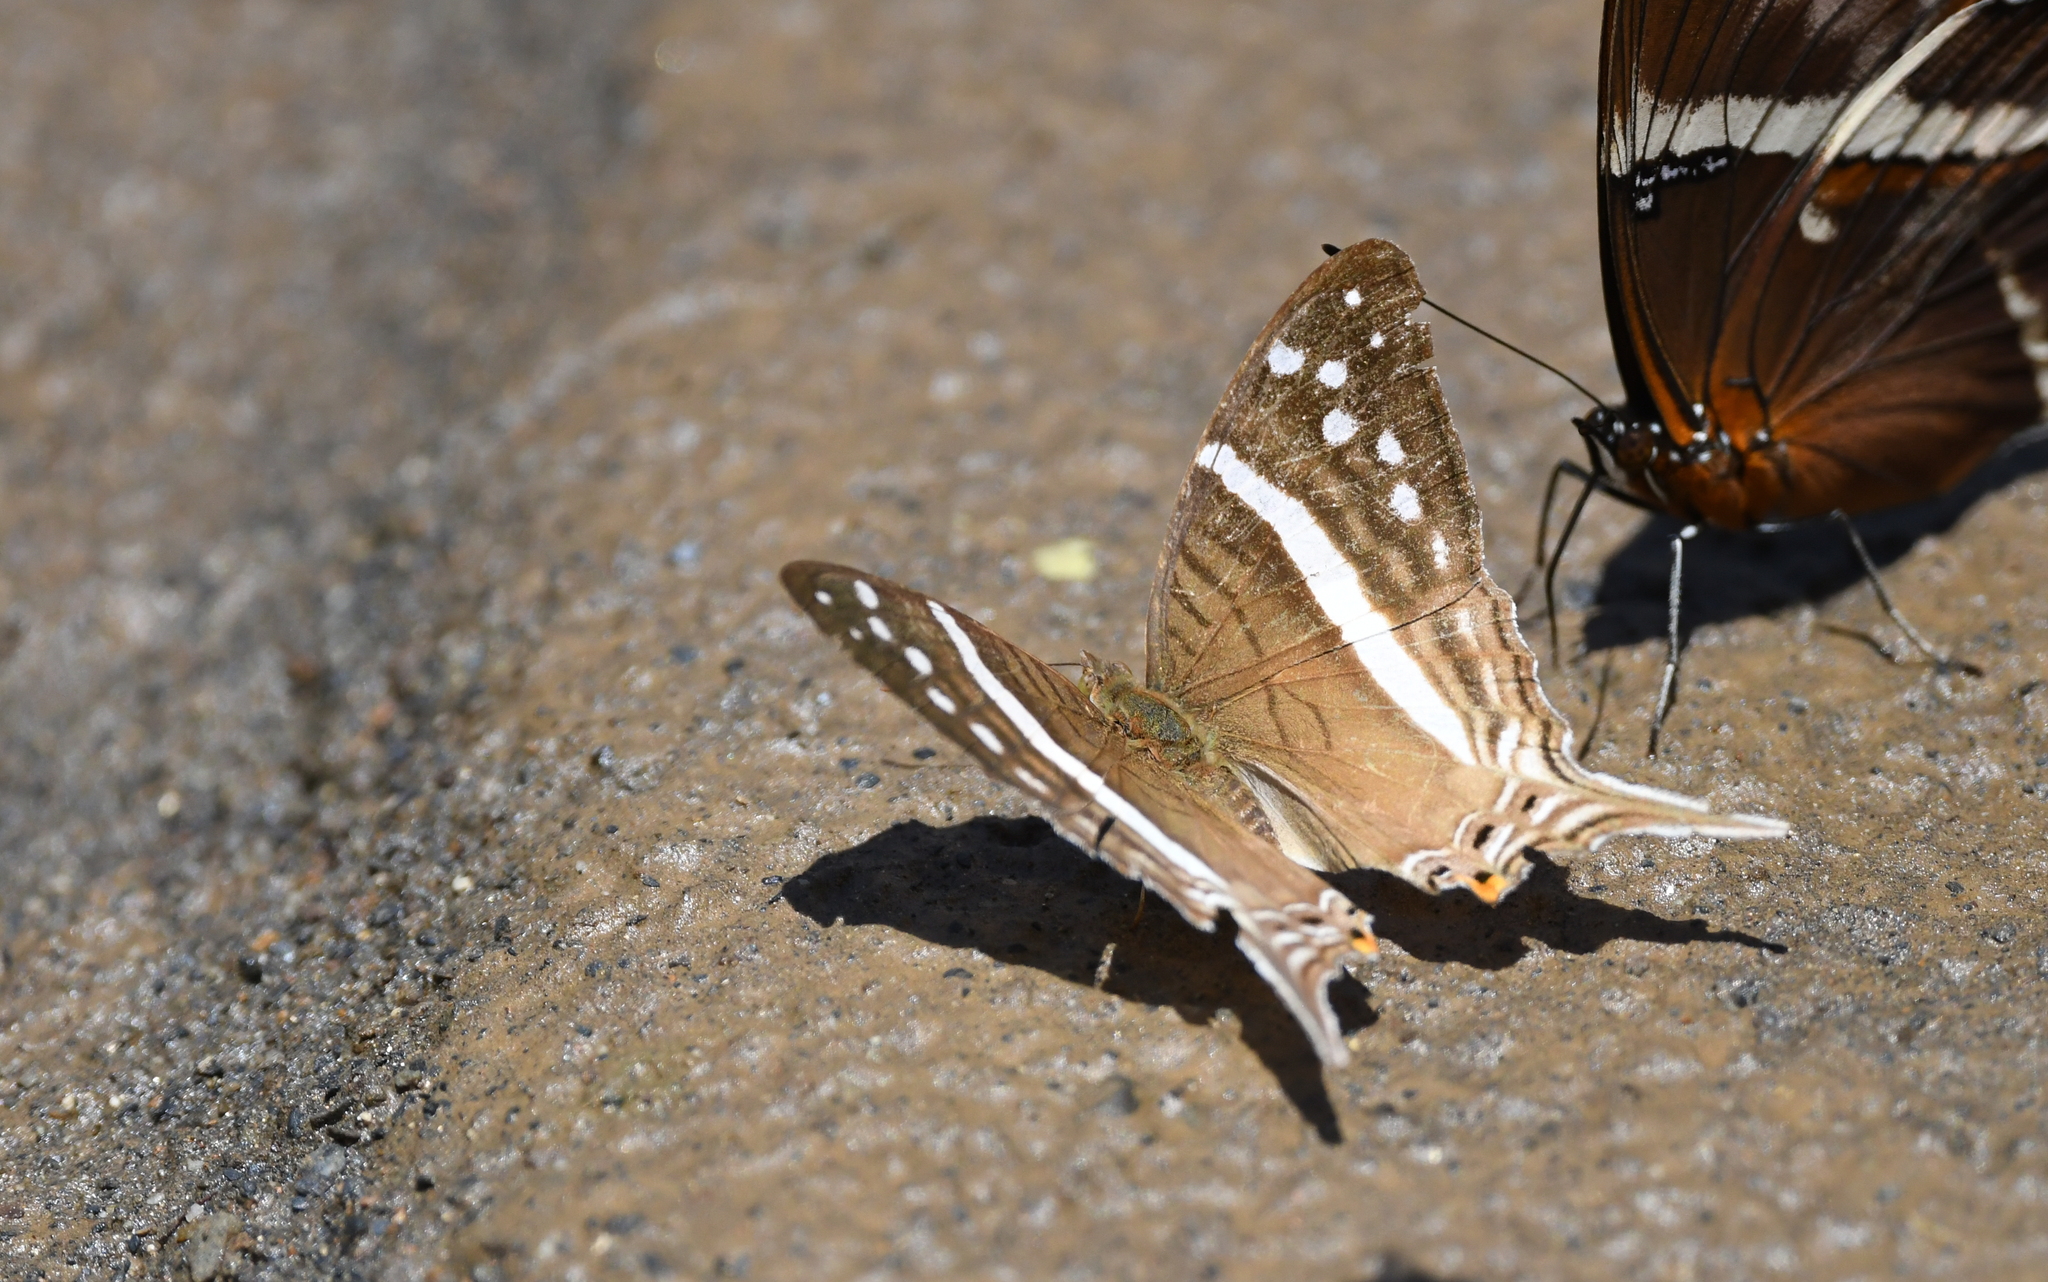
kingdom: Animalia
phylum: Arthropoda
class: Insecta
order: Lepidoptera
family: Nymphalidae
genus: Marpesia
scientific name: Marpesia crethon
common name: Crethon daggerwing
